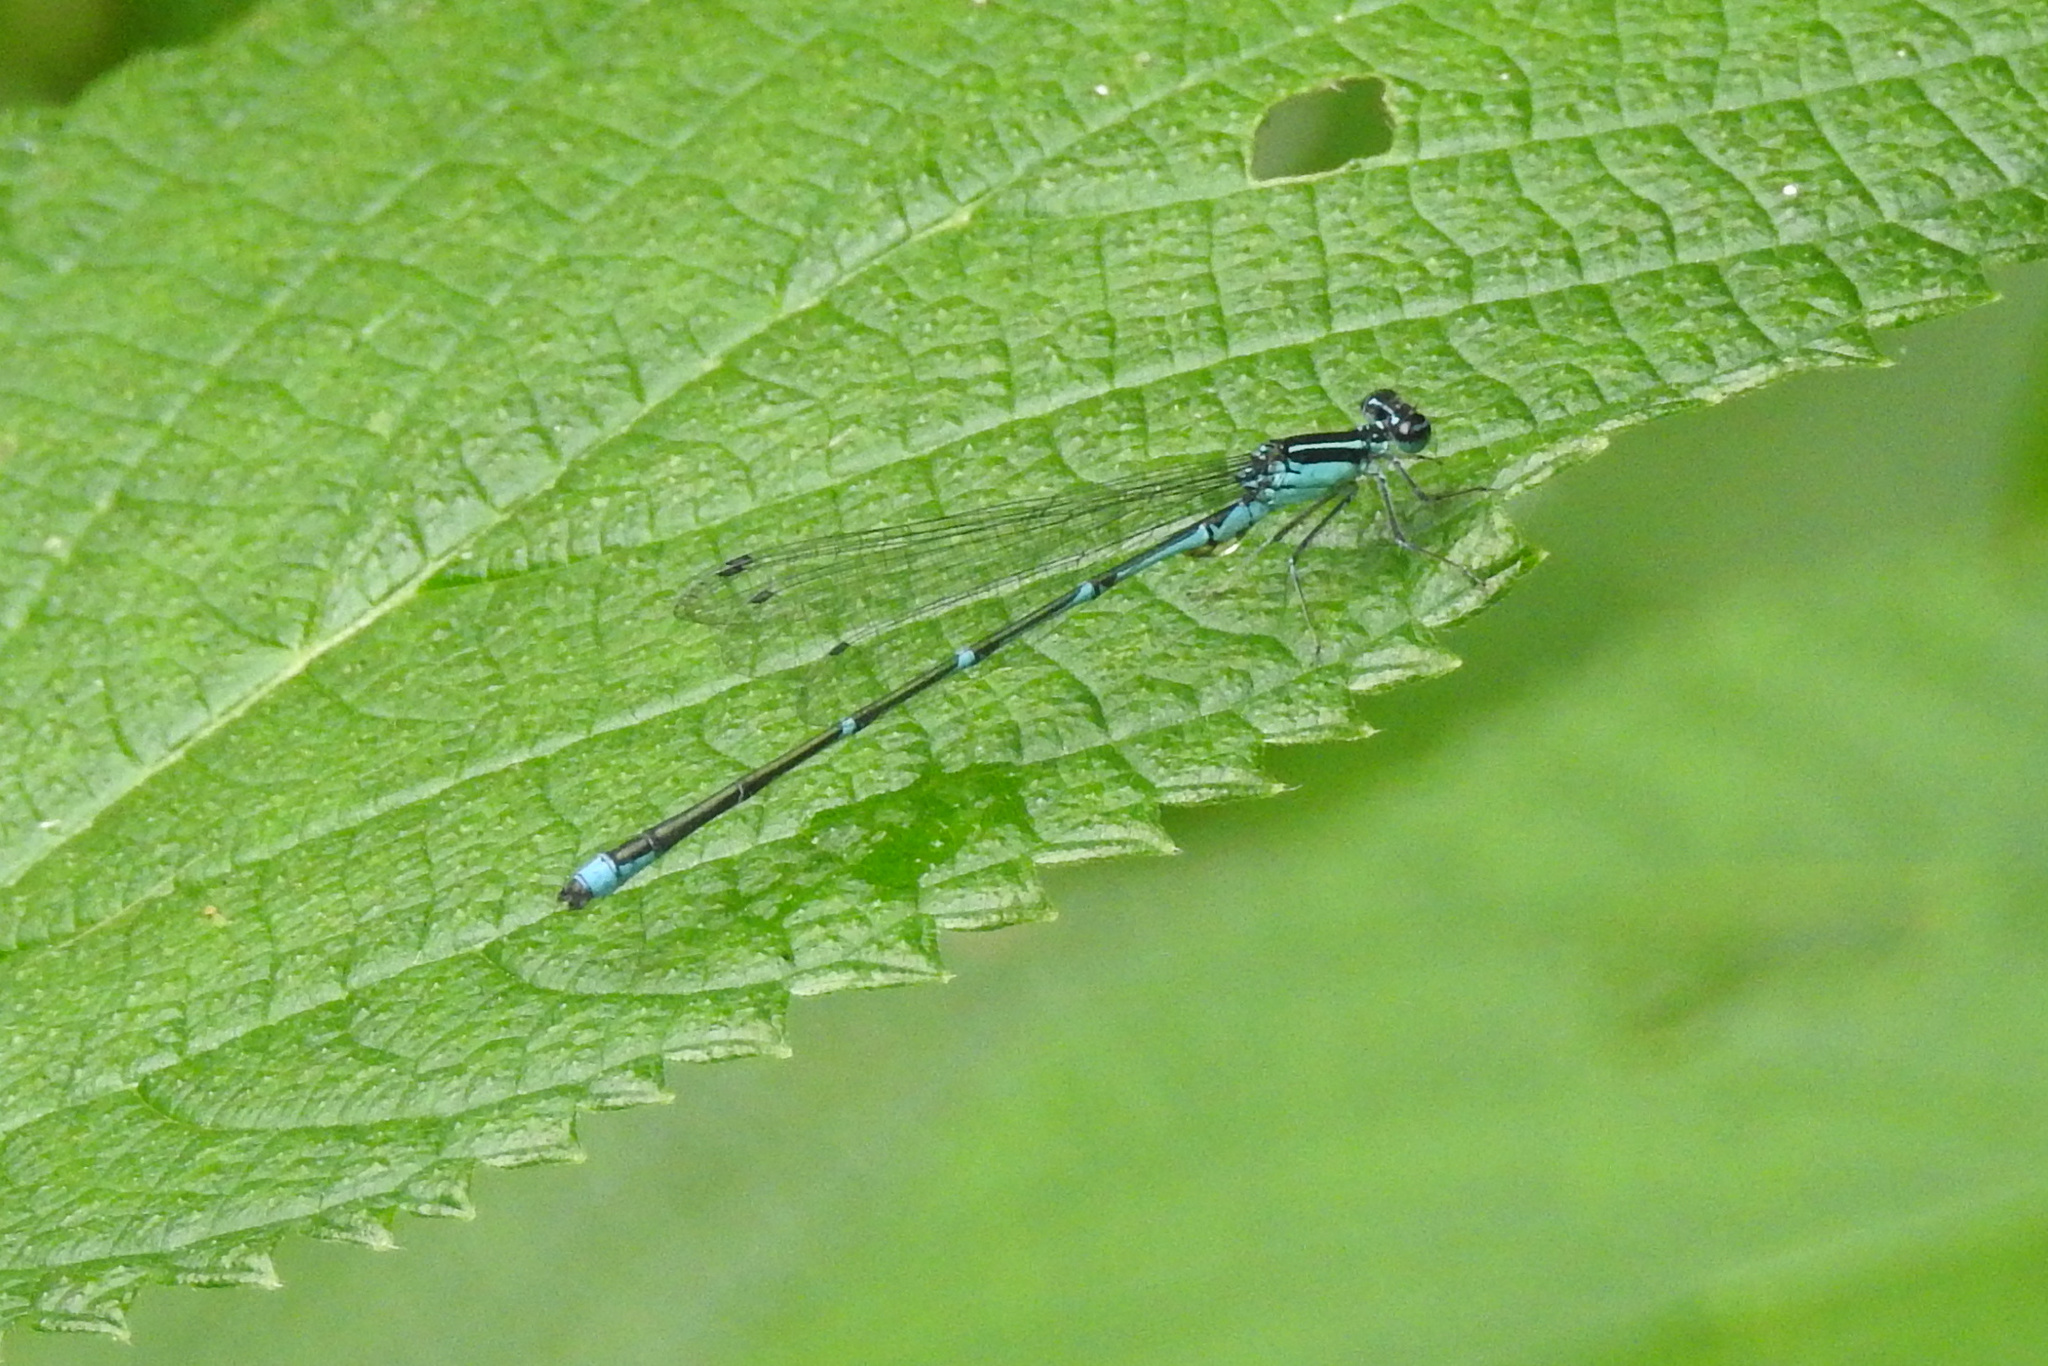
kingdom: Animalia
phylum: Arthropoda
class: Insecta
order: Odonata
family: Coenagrionidae
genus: Enallagma
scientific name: Enallagma exsulans
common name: Stream bluet
